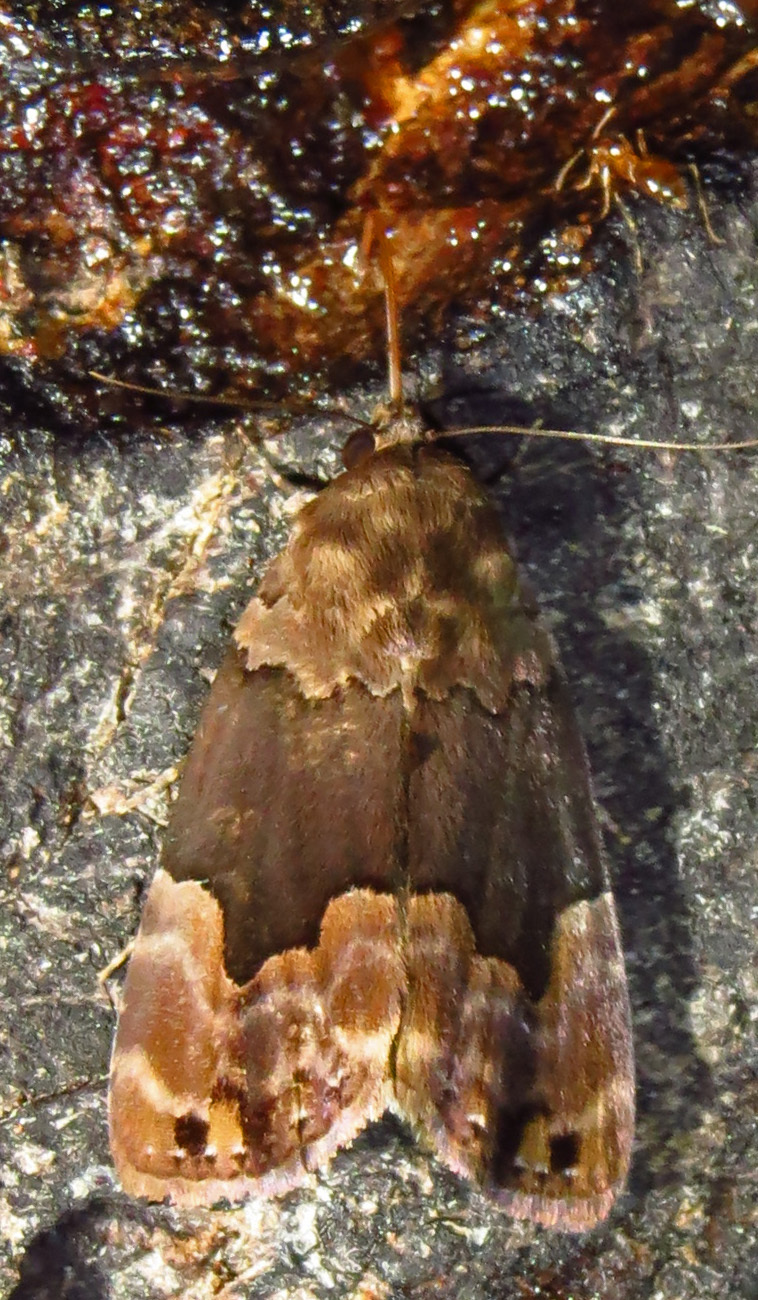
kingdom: Animalia
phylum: Arthropoda
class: Insecta
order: Lepidoptera
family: Erebidae
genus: Dinumma
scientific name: Dinumma deponens
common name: Purplish moth
